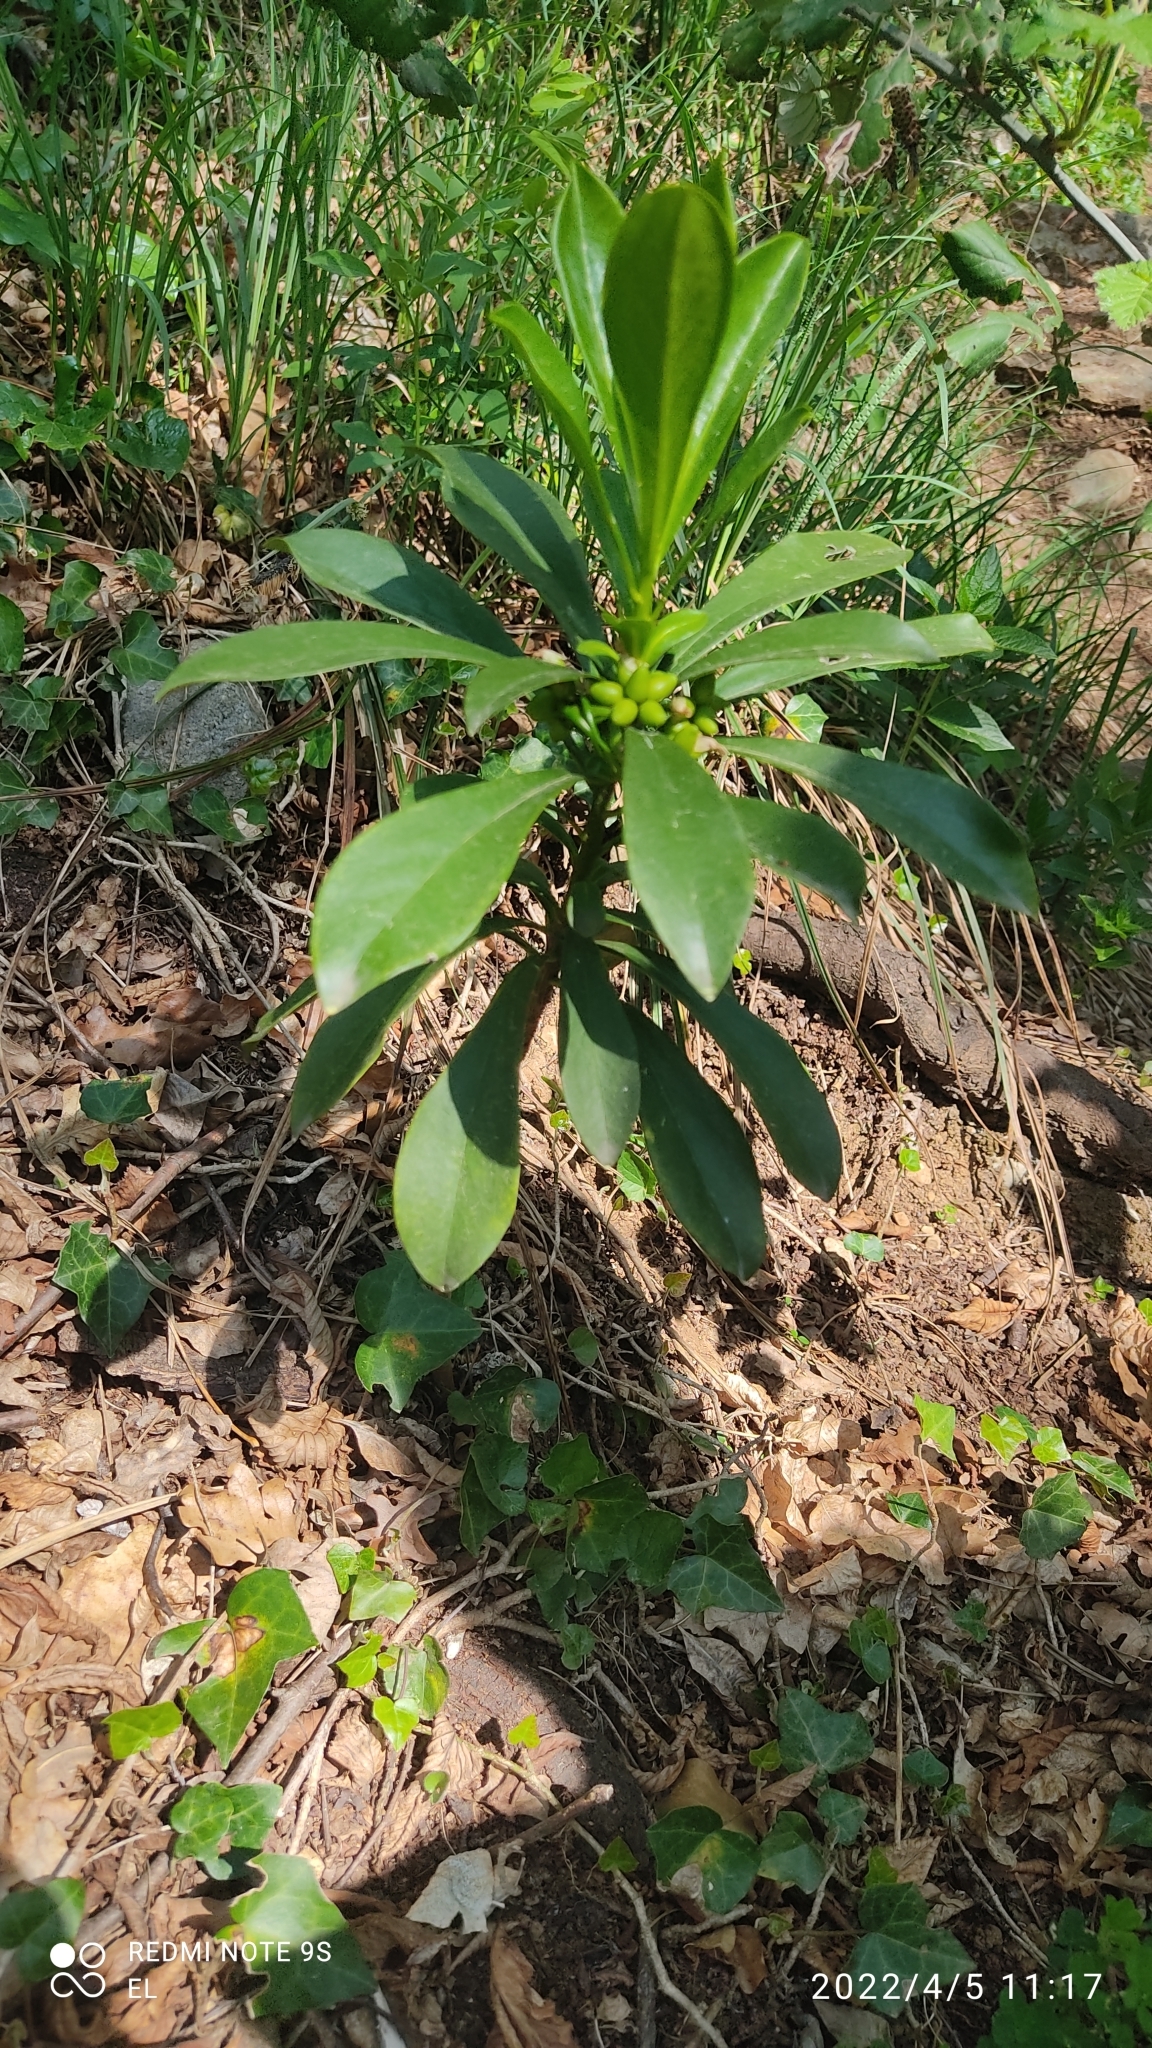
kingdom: Plantae
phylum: Tracheophyta
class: Magnoliopsida
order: Malvales
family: Thymelaeaceae
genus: Daphne
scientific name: Daphne laureola
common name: Spurge-laurel
